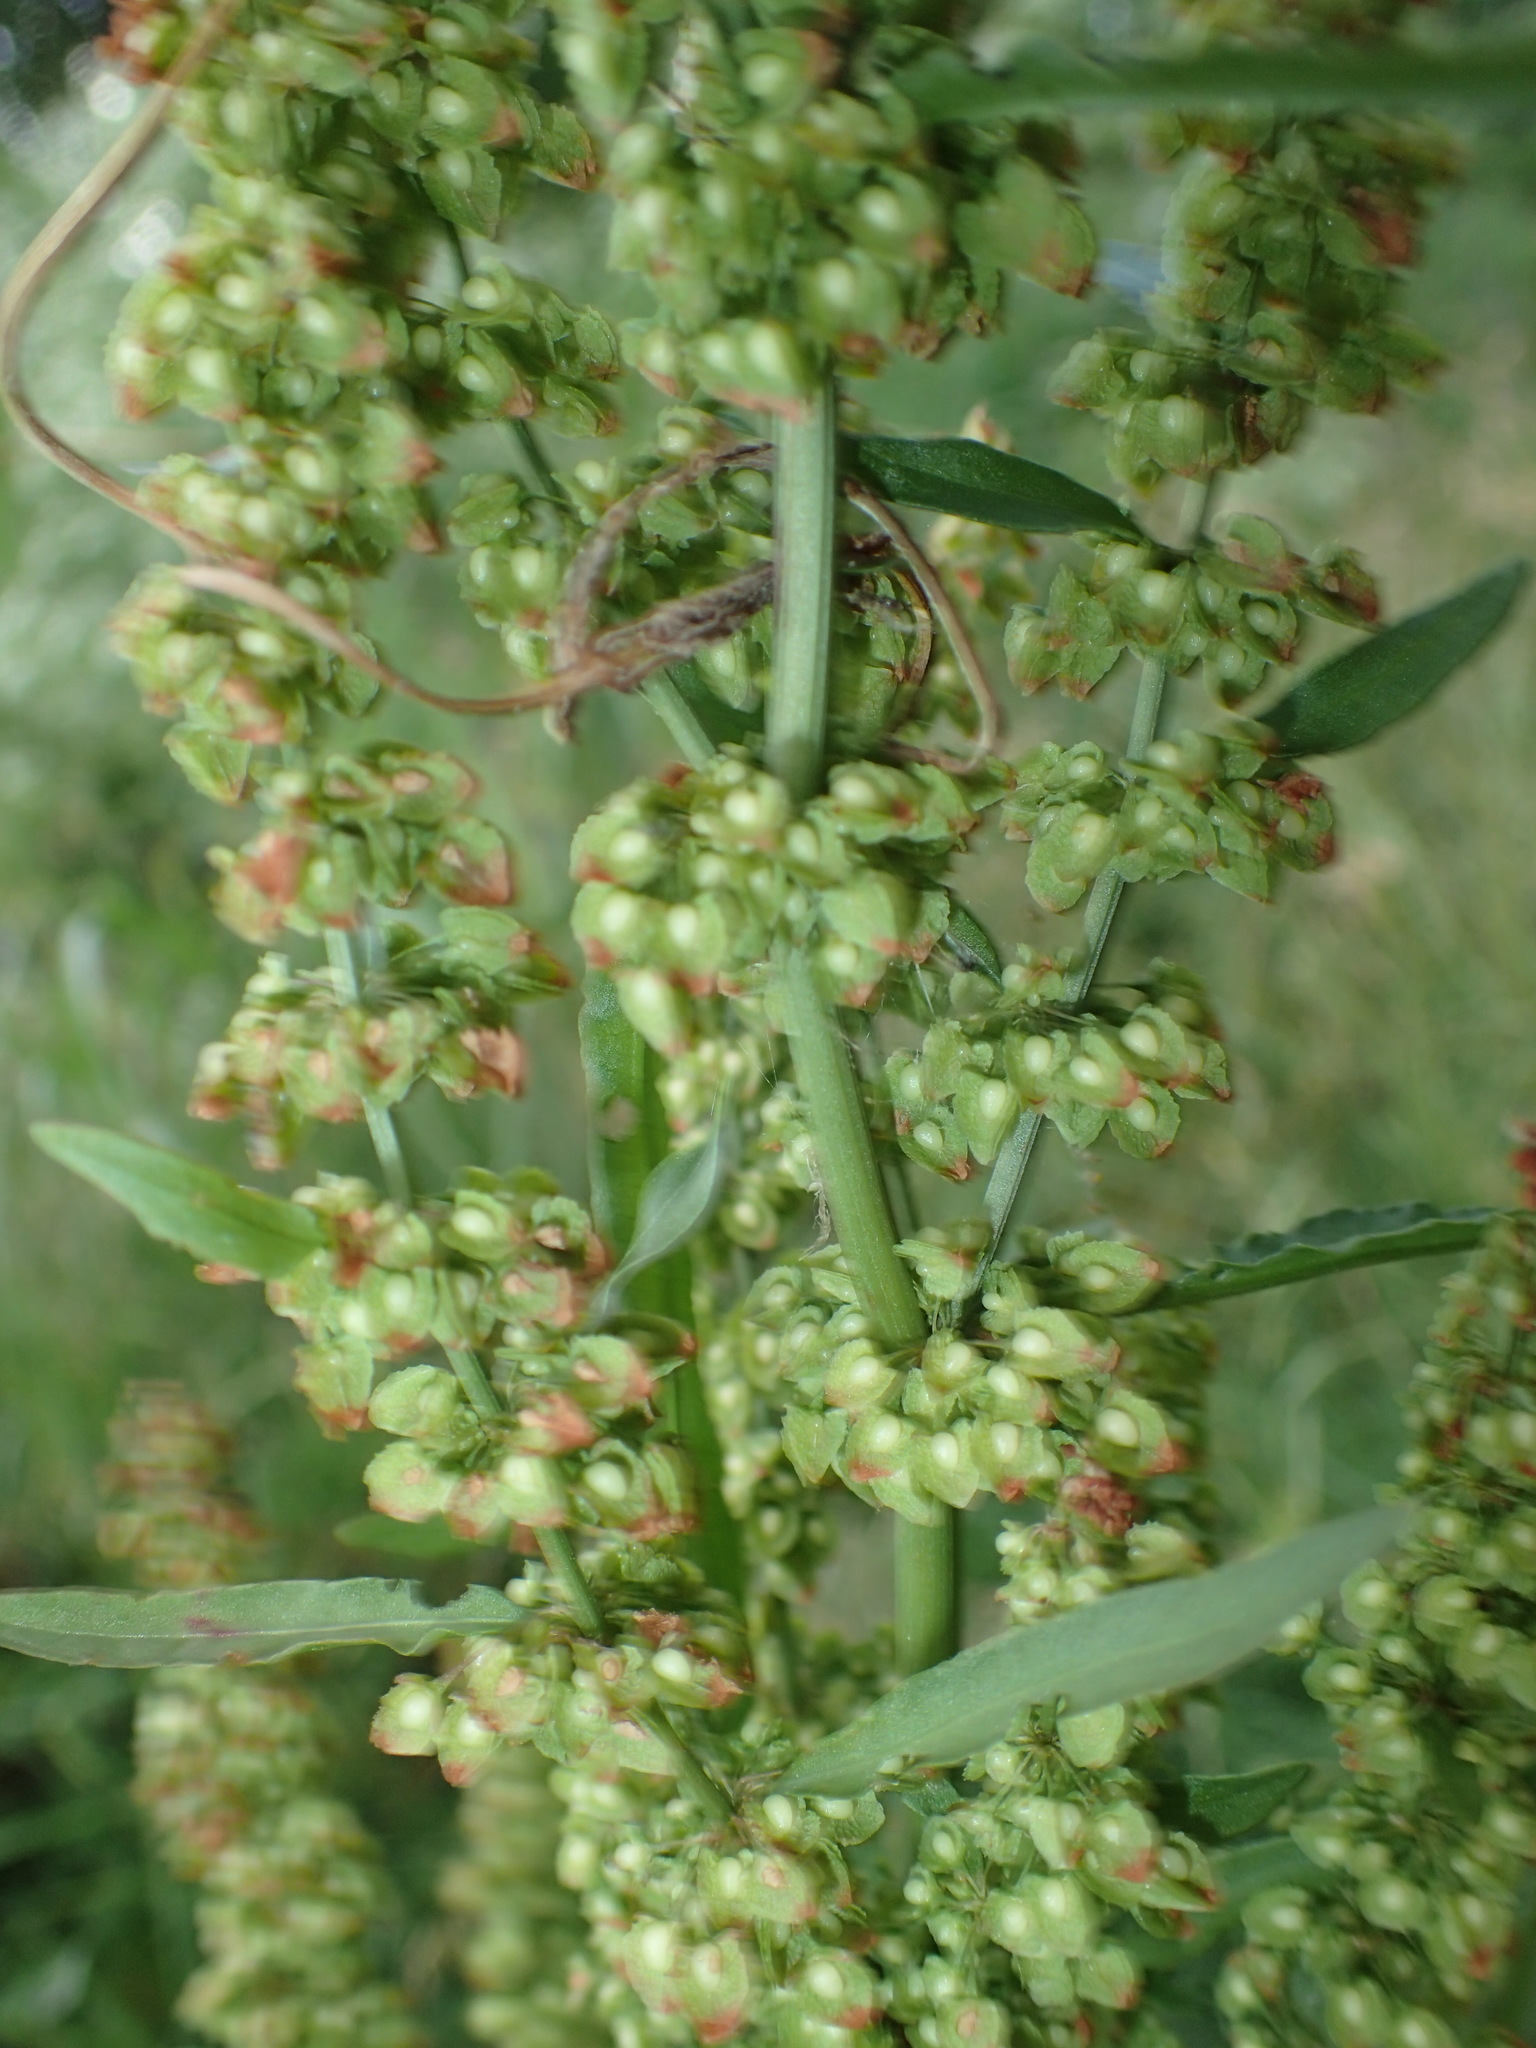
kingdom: Plantae
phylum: Tracheophyta
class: Magnoliopsida
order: Caryophyllales
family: Polygonaceae
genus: Rumex
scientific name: Rumex crispus
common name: Curled dock
